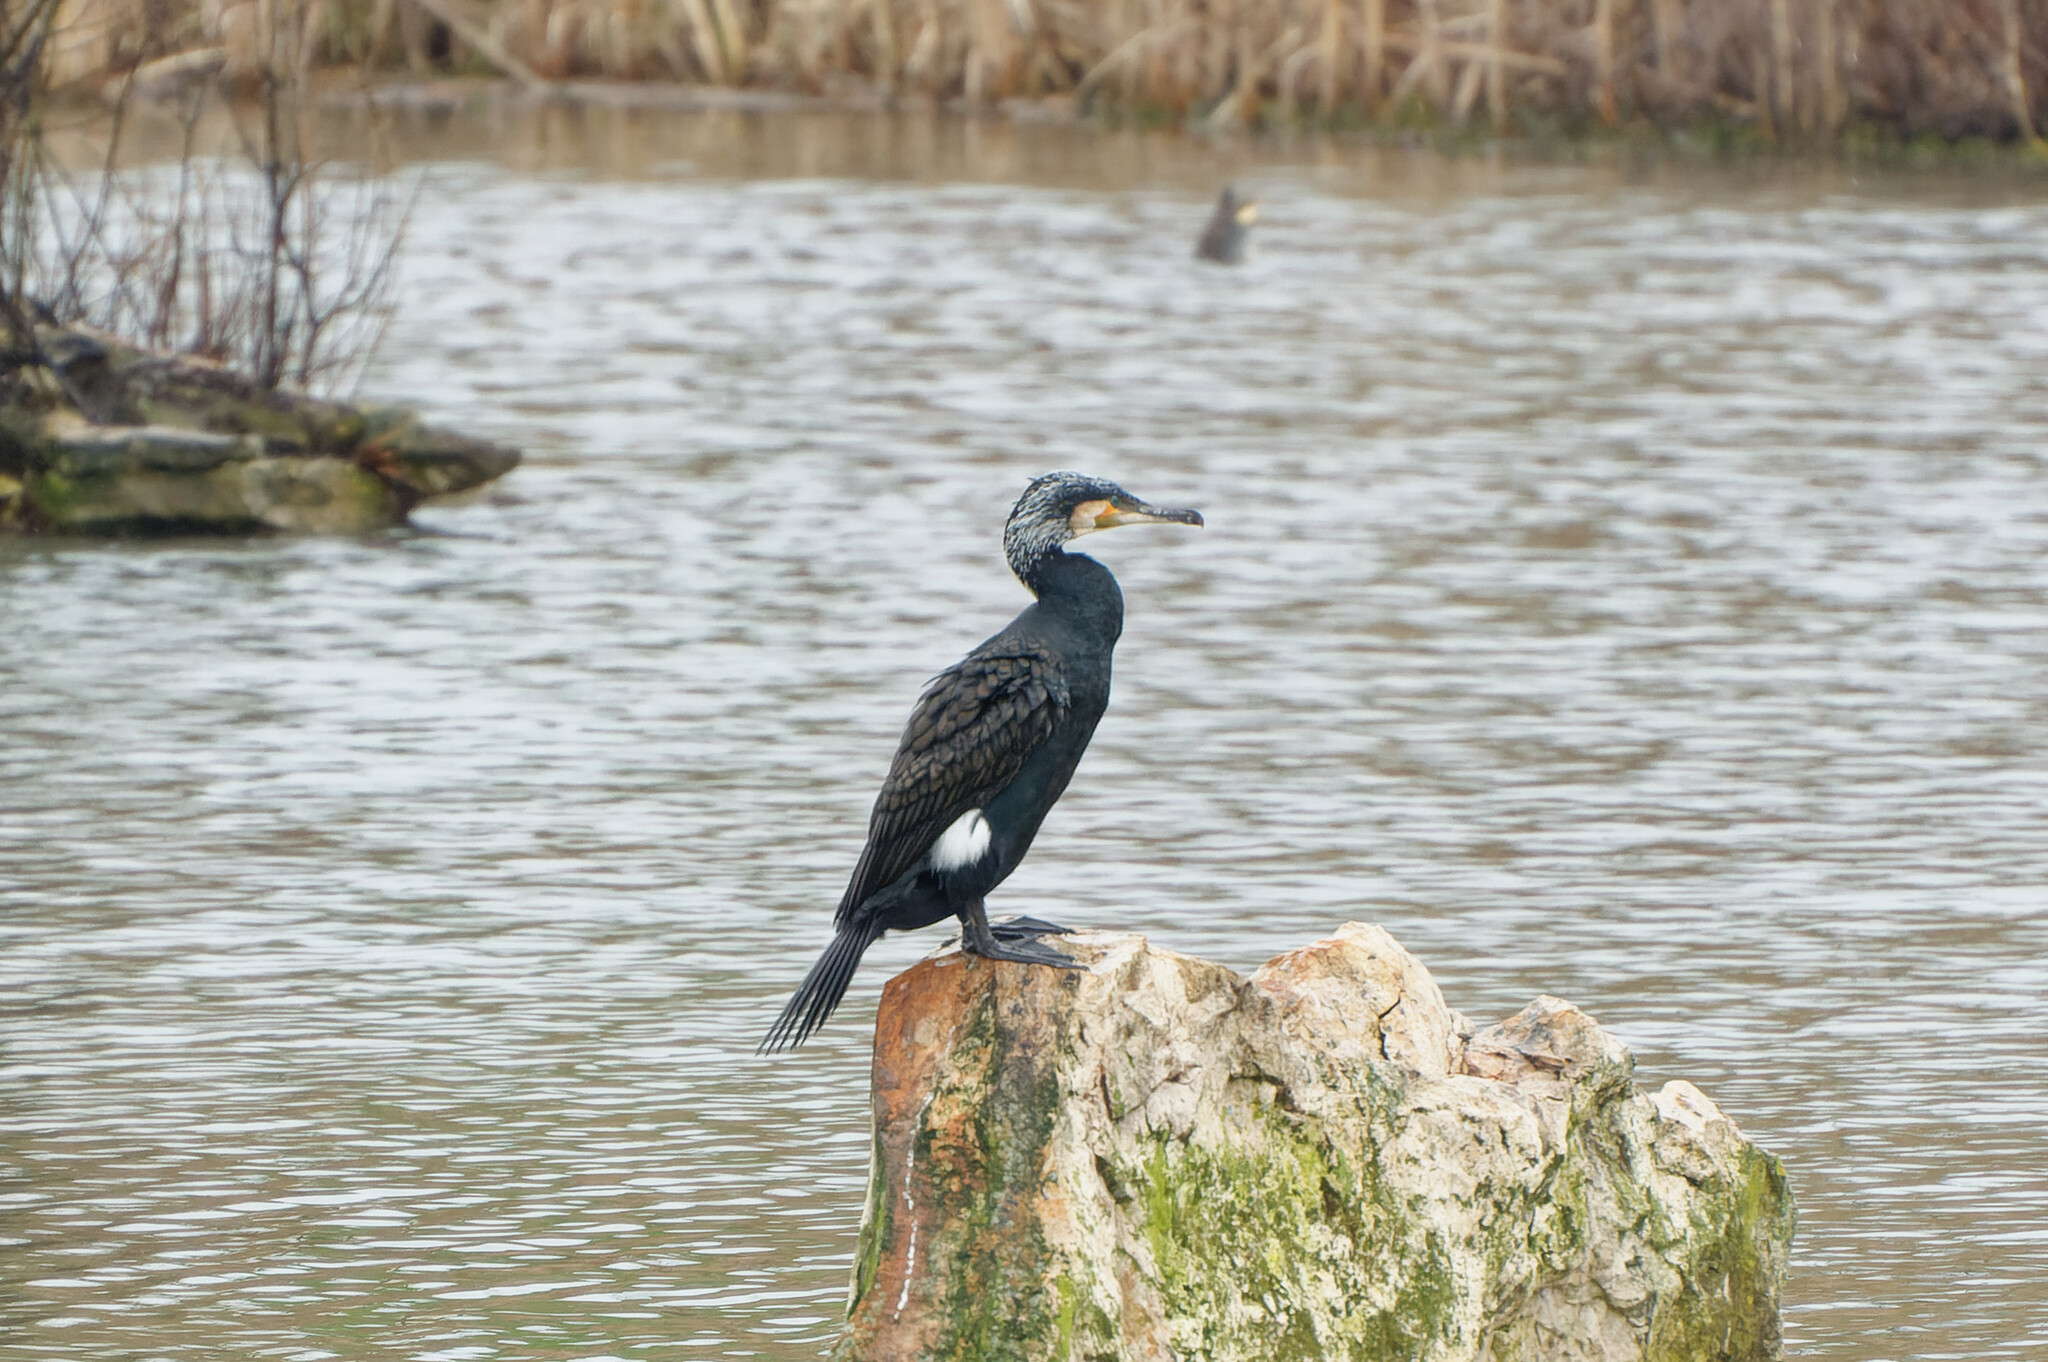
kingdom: Animalia
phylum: Chordata
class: Aves
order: Suliformes
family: Phalacrocoracidae
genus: Phalacrocorax
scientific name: Phalacrocorax carbo
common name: Great cormorant
